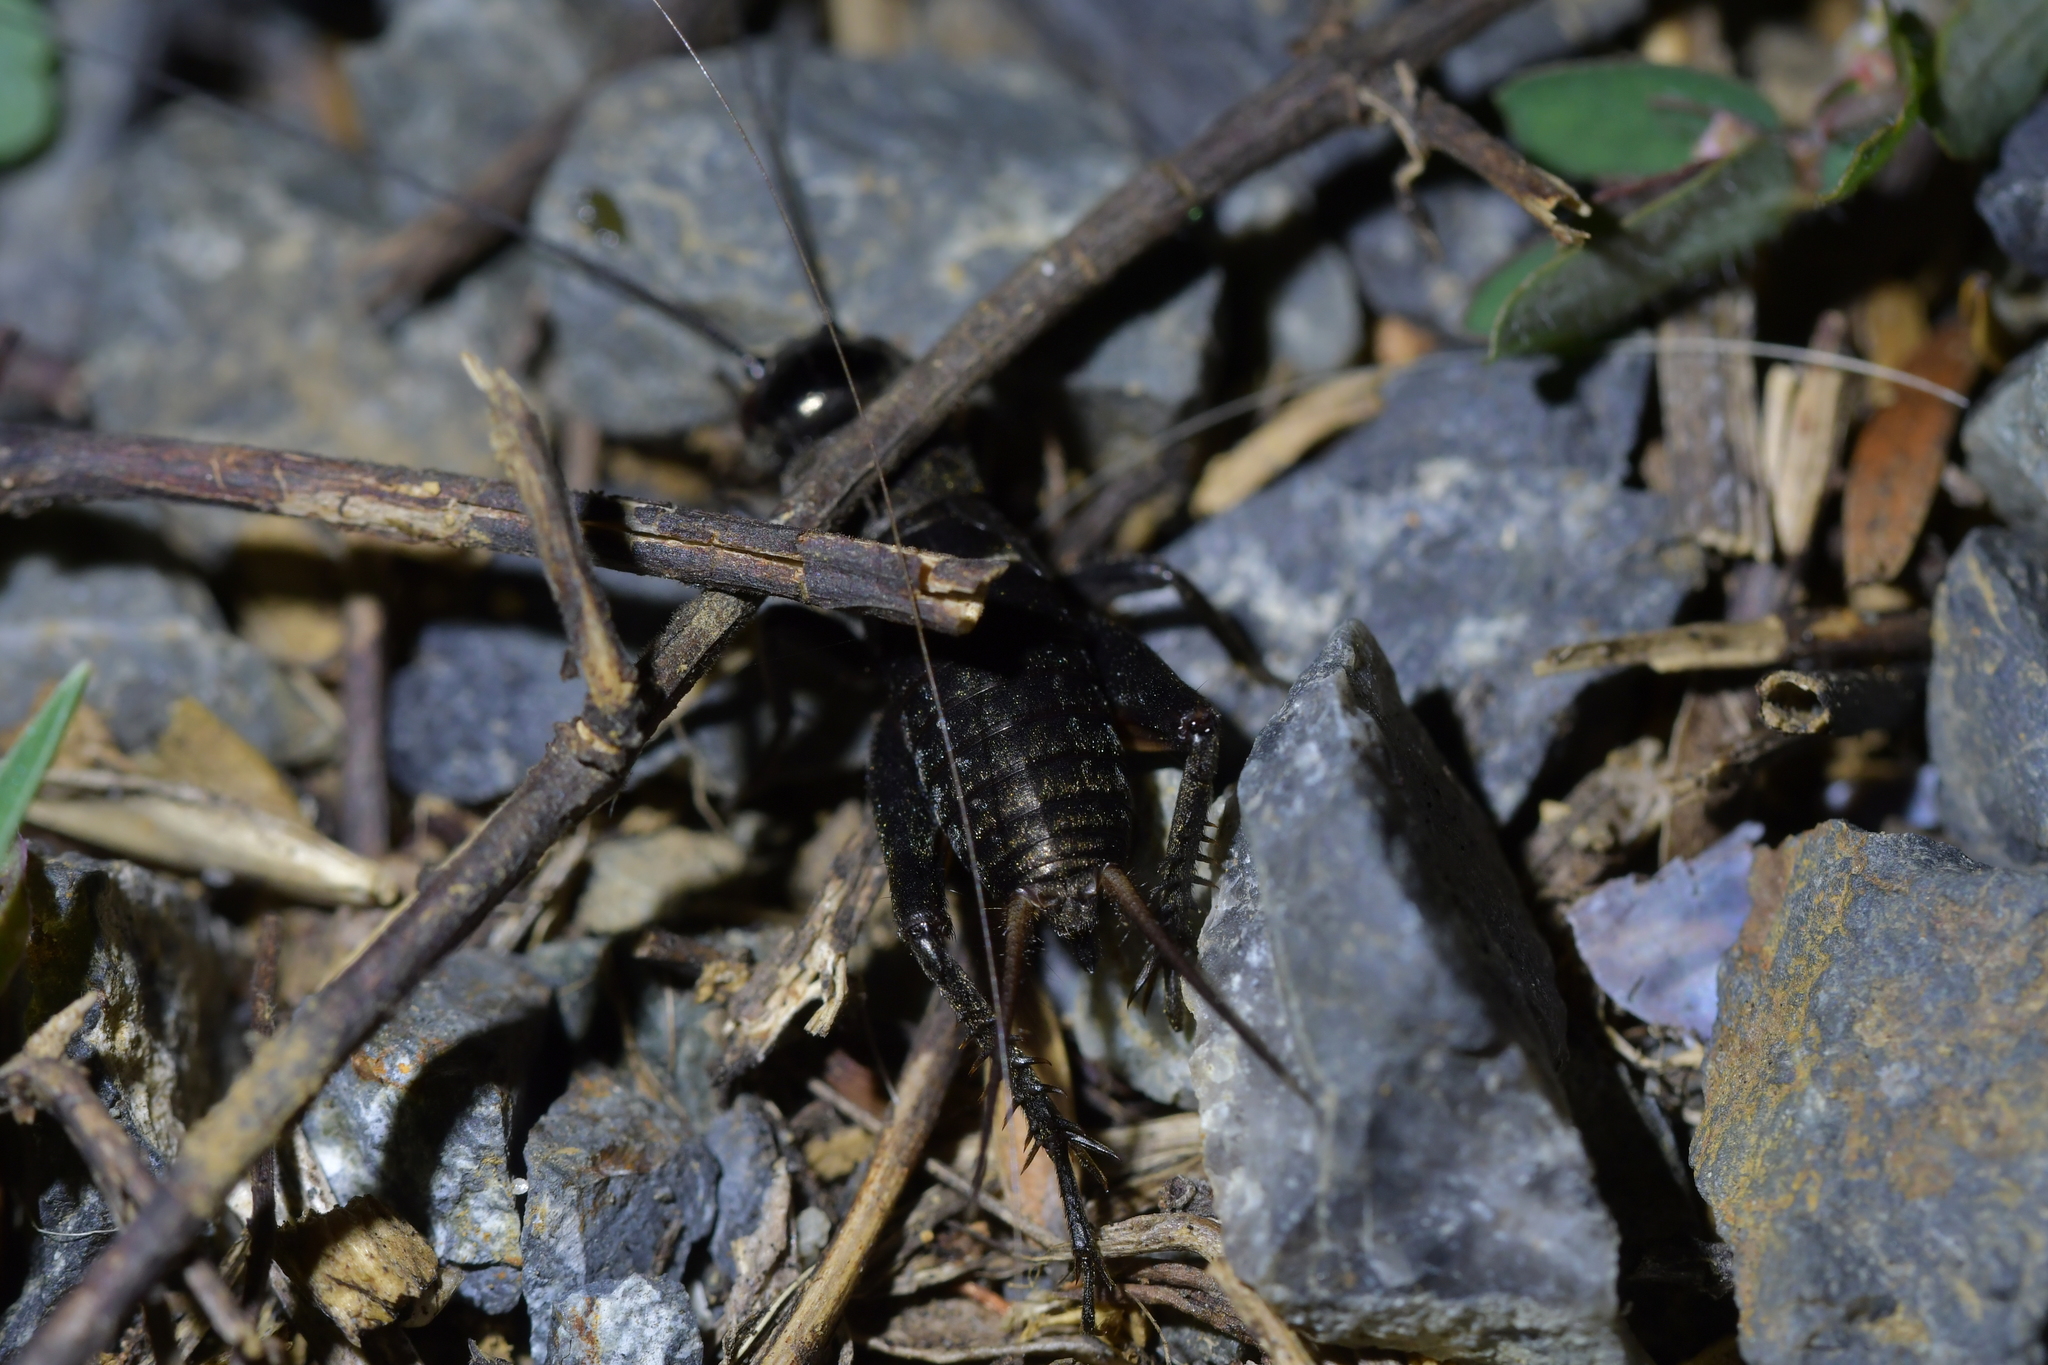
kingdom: Animalia
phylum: Arthropoda
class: Insecta
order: Orthoptera
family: Gryllidae
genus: Teleogryllus
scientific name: Teleogryllus commodus
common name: Black field cricket
